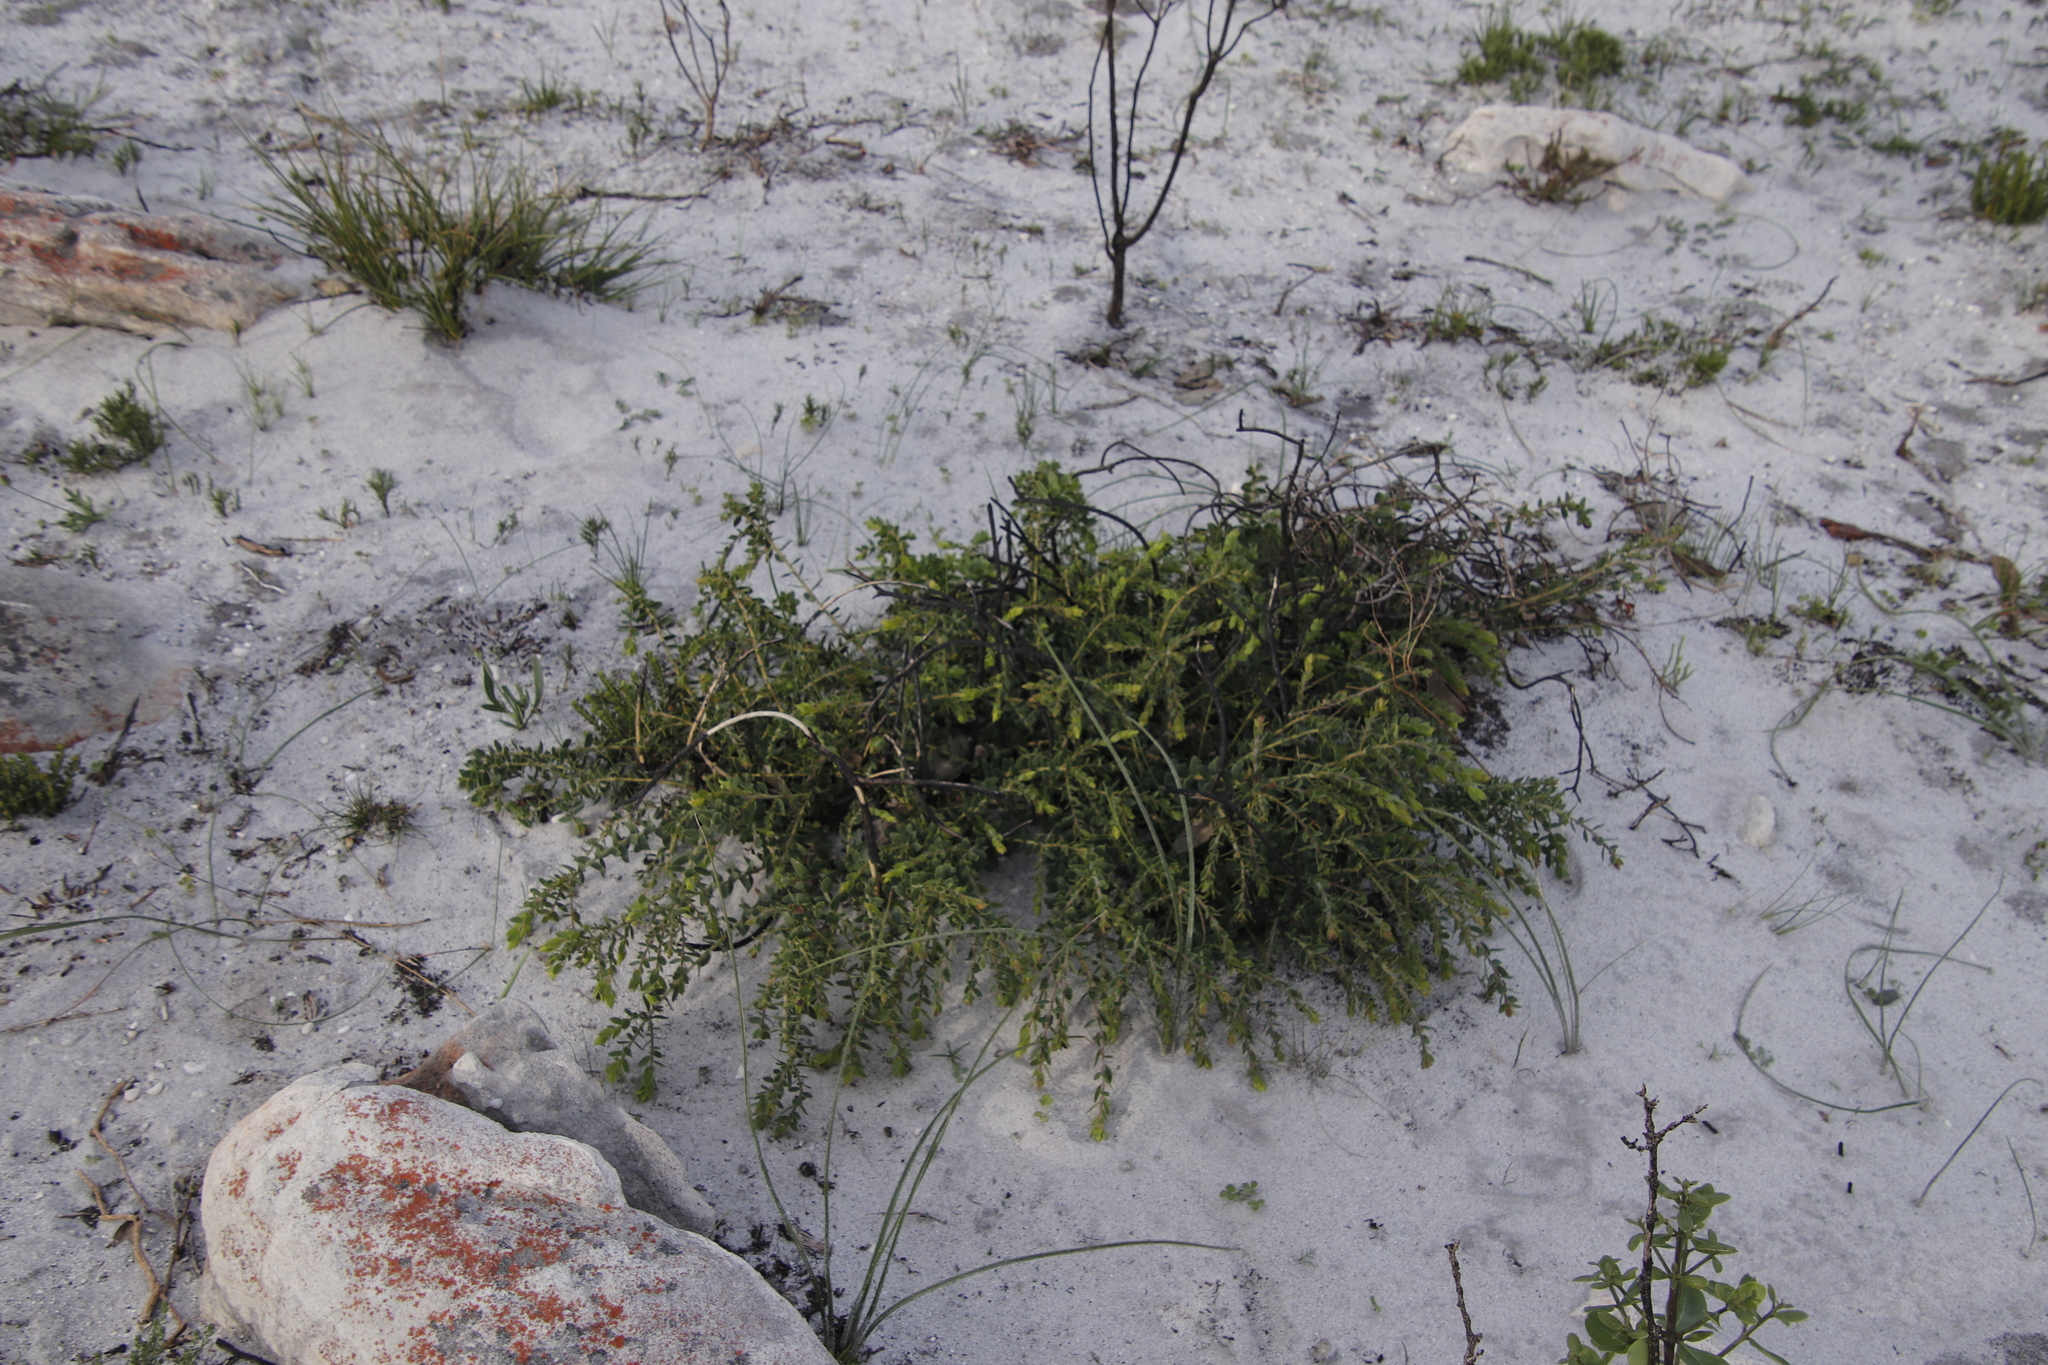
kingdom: Plantae
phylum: Tracheophyta
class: Magnoliopsida
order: Fabales
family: Fabaceae
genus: Liparia
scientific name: Liparia parva
